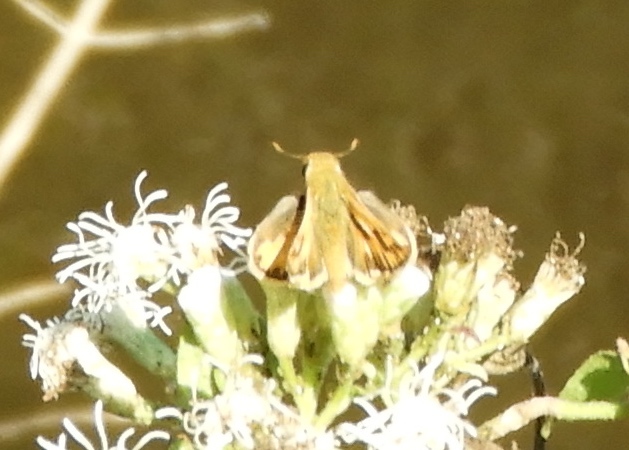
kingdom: Animalia
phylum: Arthropoda
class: Insecta
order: Lepidoptera
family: Hesperiidae
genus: Hylephila
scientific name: Hylephila phyleus
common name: Fiery skipper
